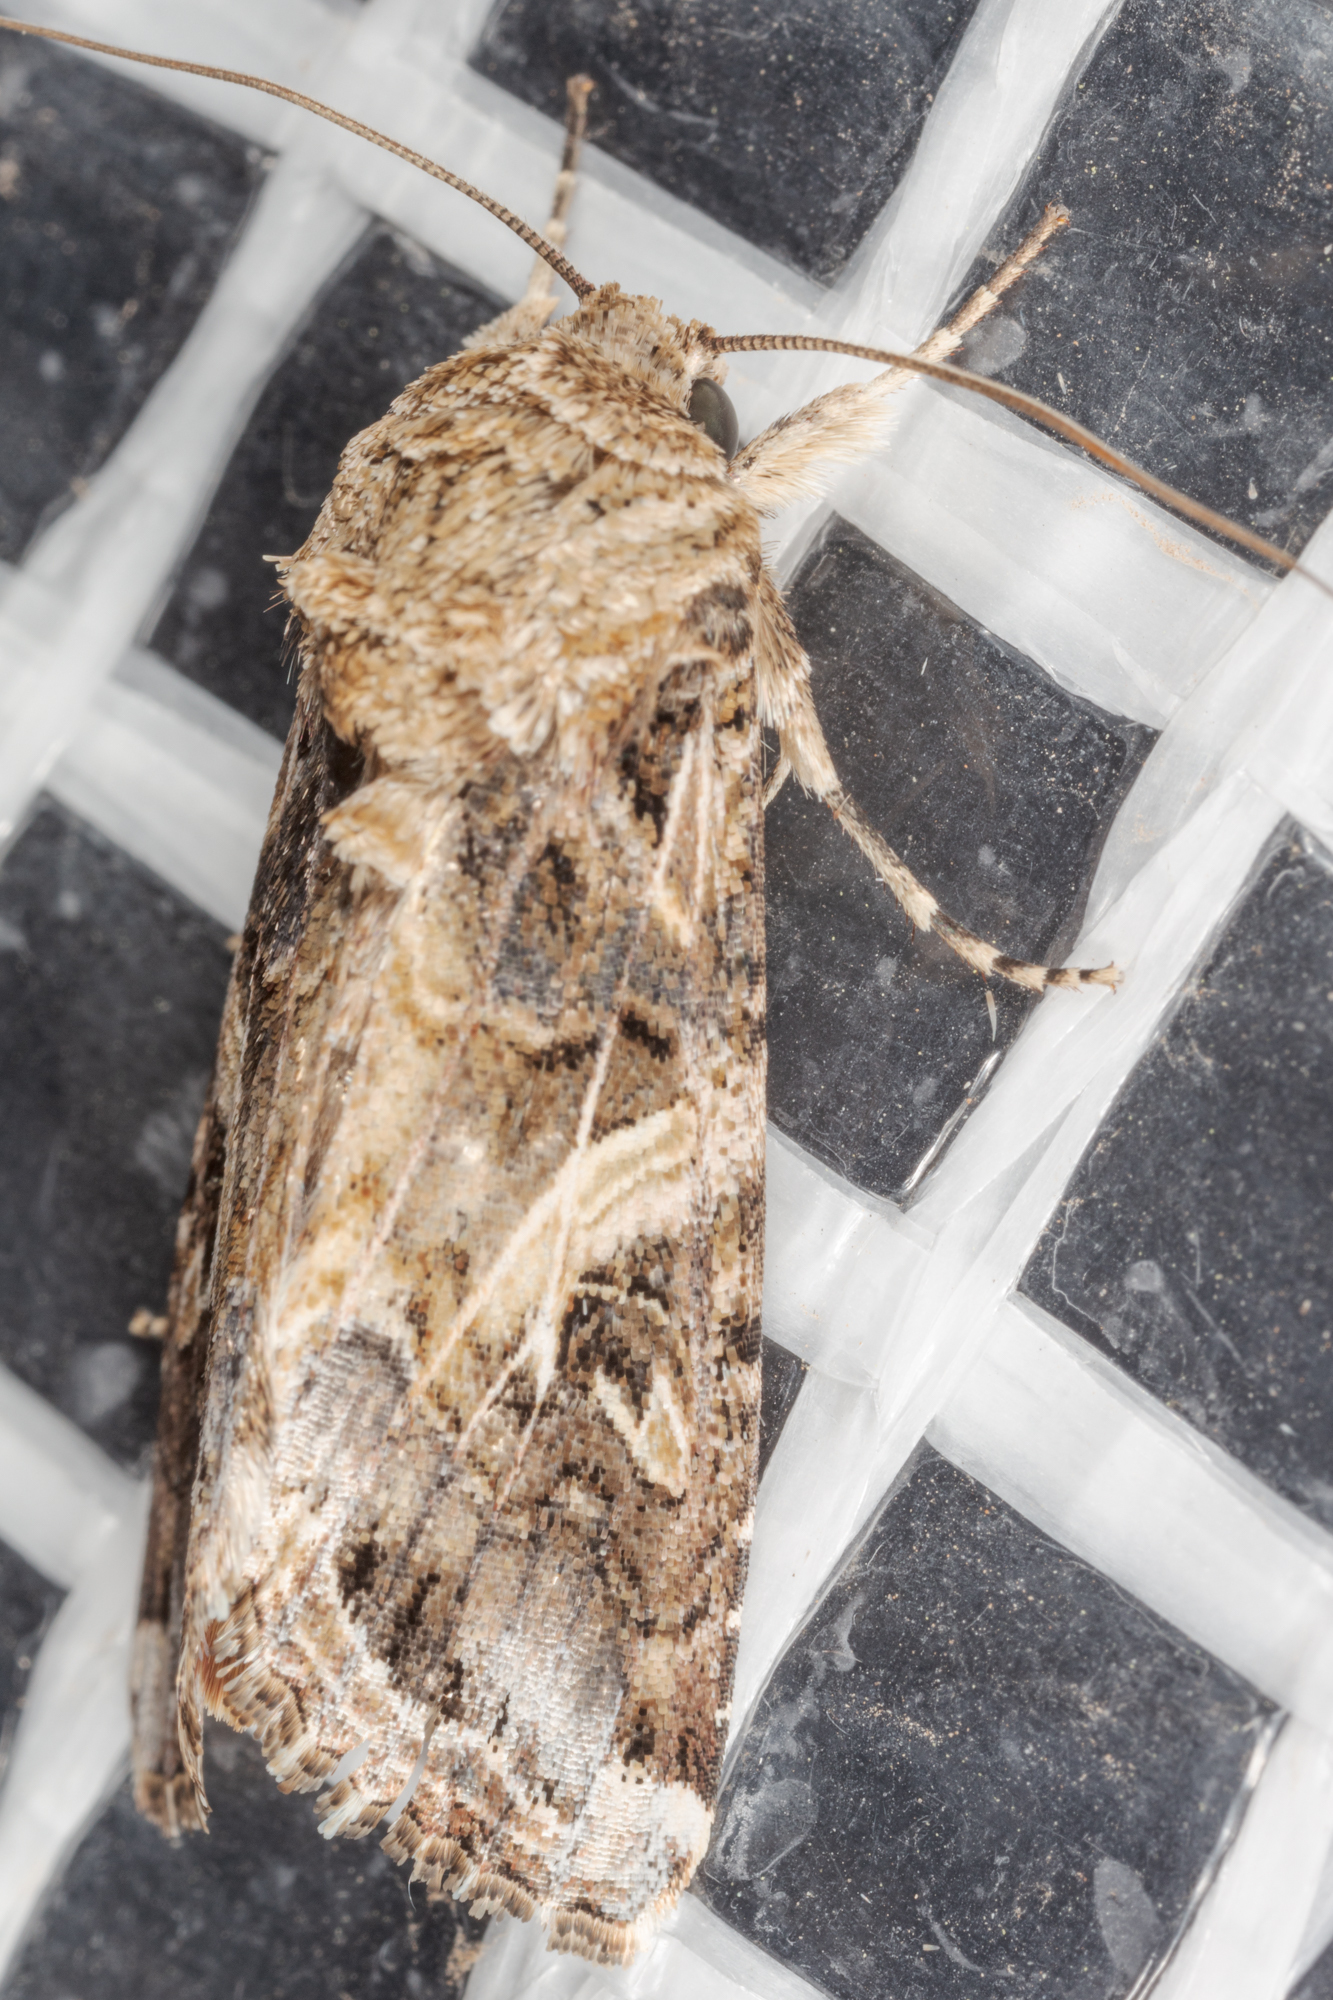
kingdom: Animalia
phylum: Arthropoda
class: Insecta
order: Lepidoptera
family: Noctuidae
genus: Spodoptera
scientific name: Spodoptera ornithogalli
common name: Yellow-striped armyworm
